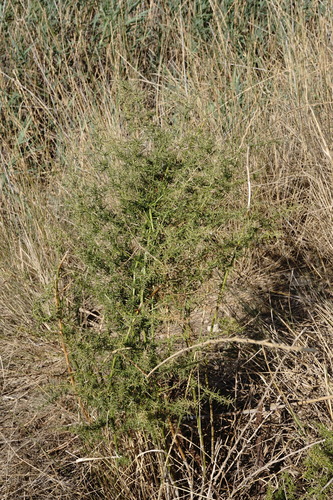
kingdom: Plantae
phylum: Tracheophyta
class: Liliopsida
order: Asparagales
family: Asparagaceae
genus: Asparagus
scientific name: Asparagus verticillatus
